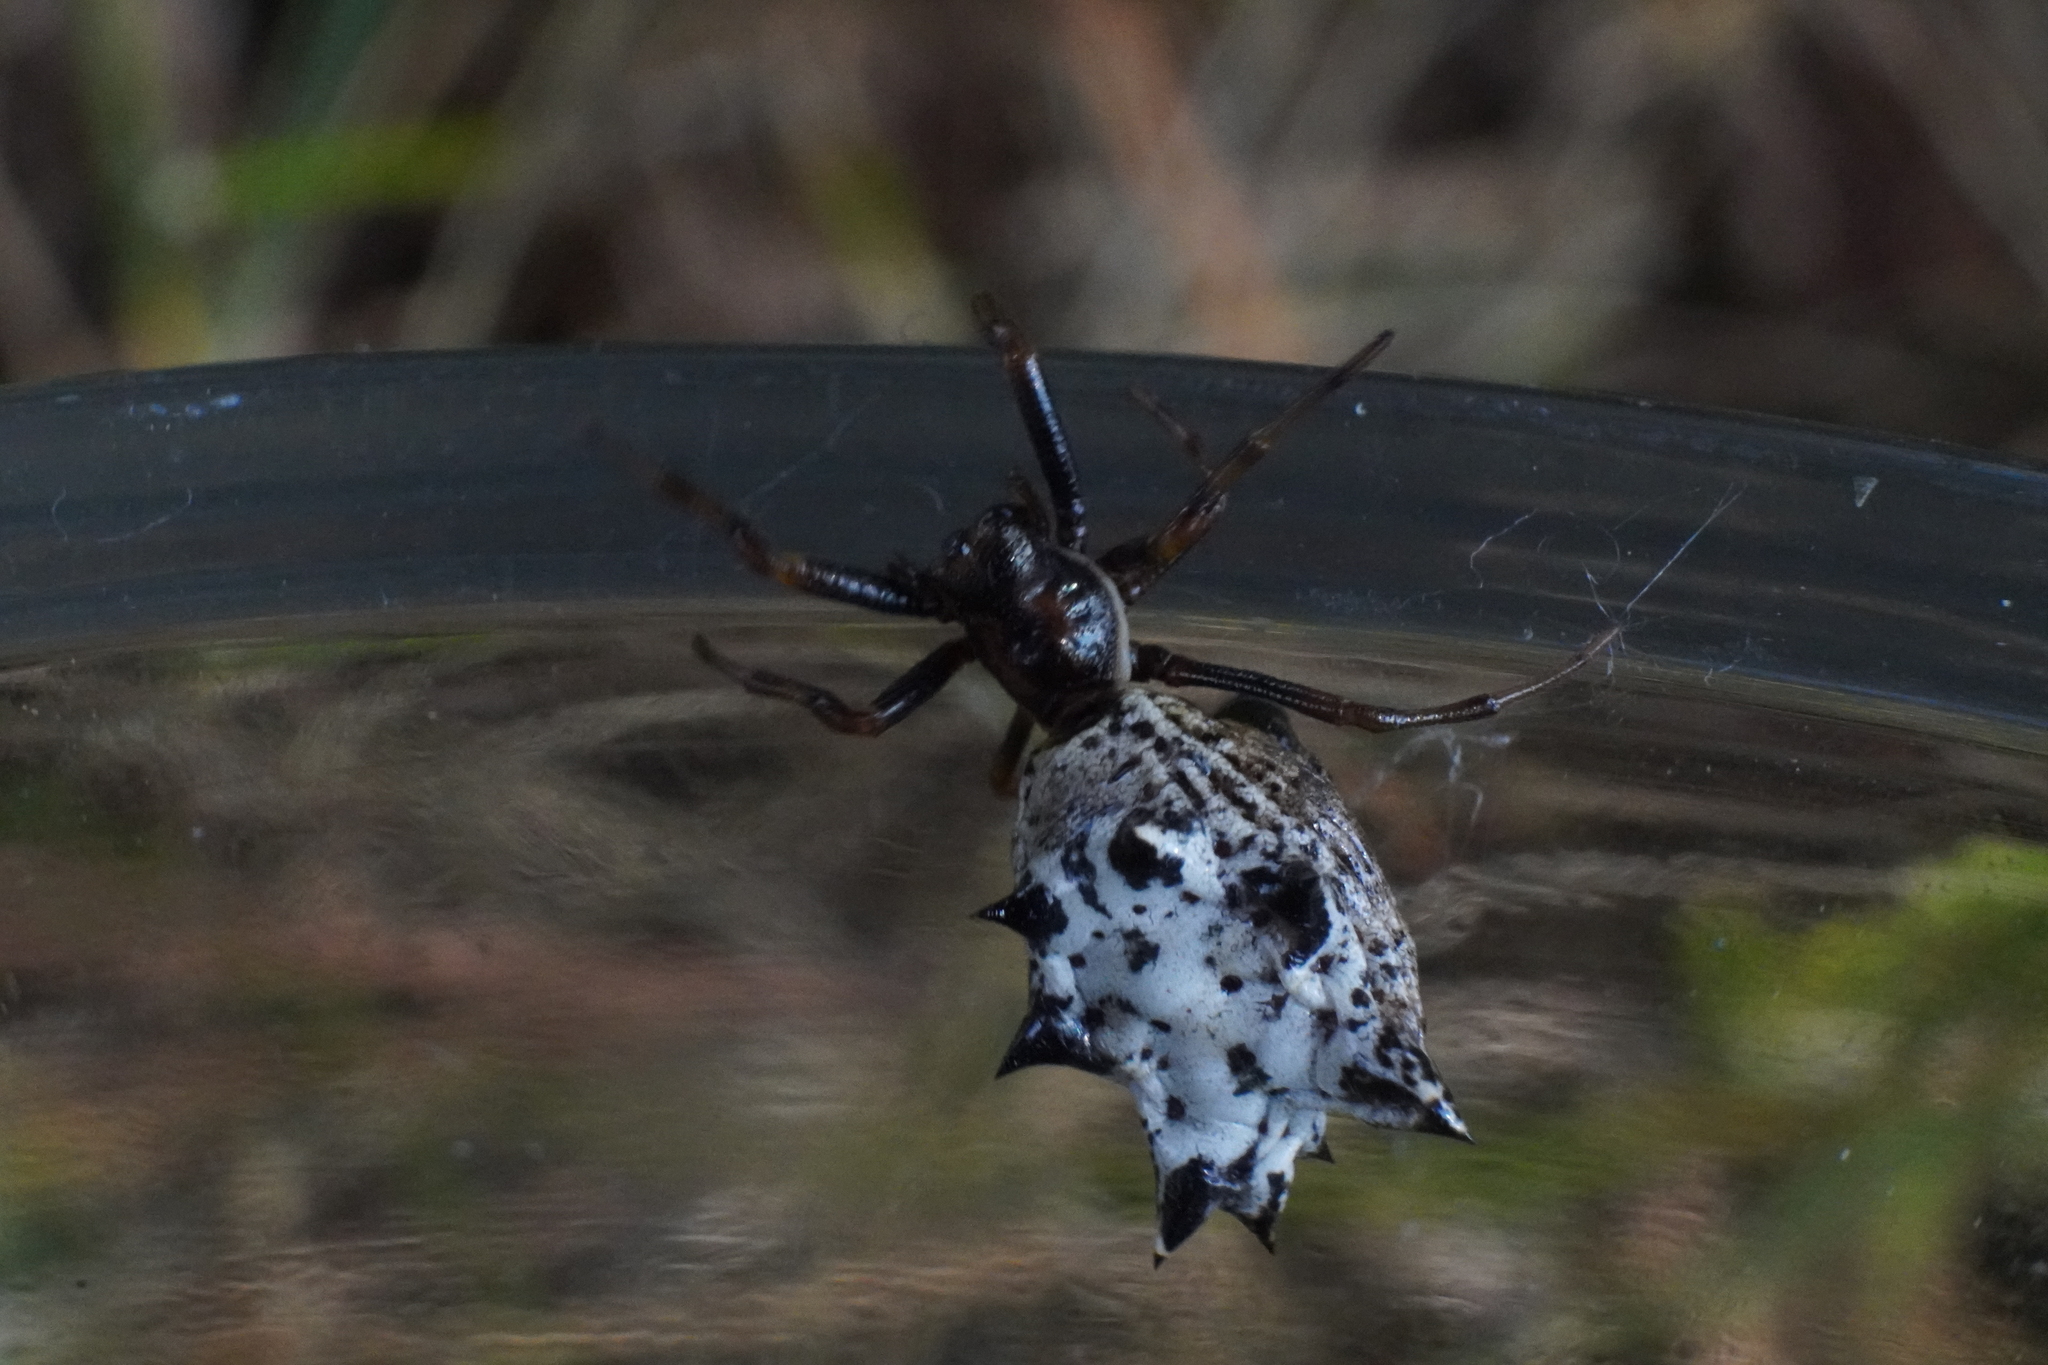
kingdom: Animalia
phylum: Arthropoda
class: Arachnida
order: Araneae
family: Araneidae
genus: Micrathena
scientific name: Micrathena gracilis
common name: Orb weavers
